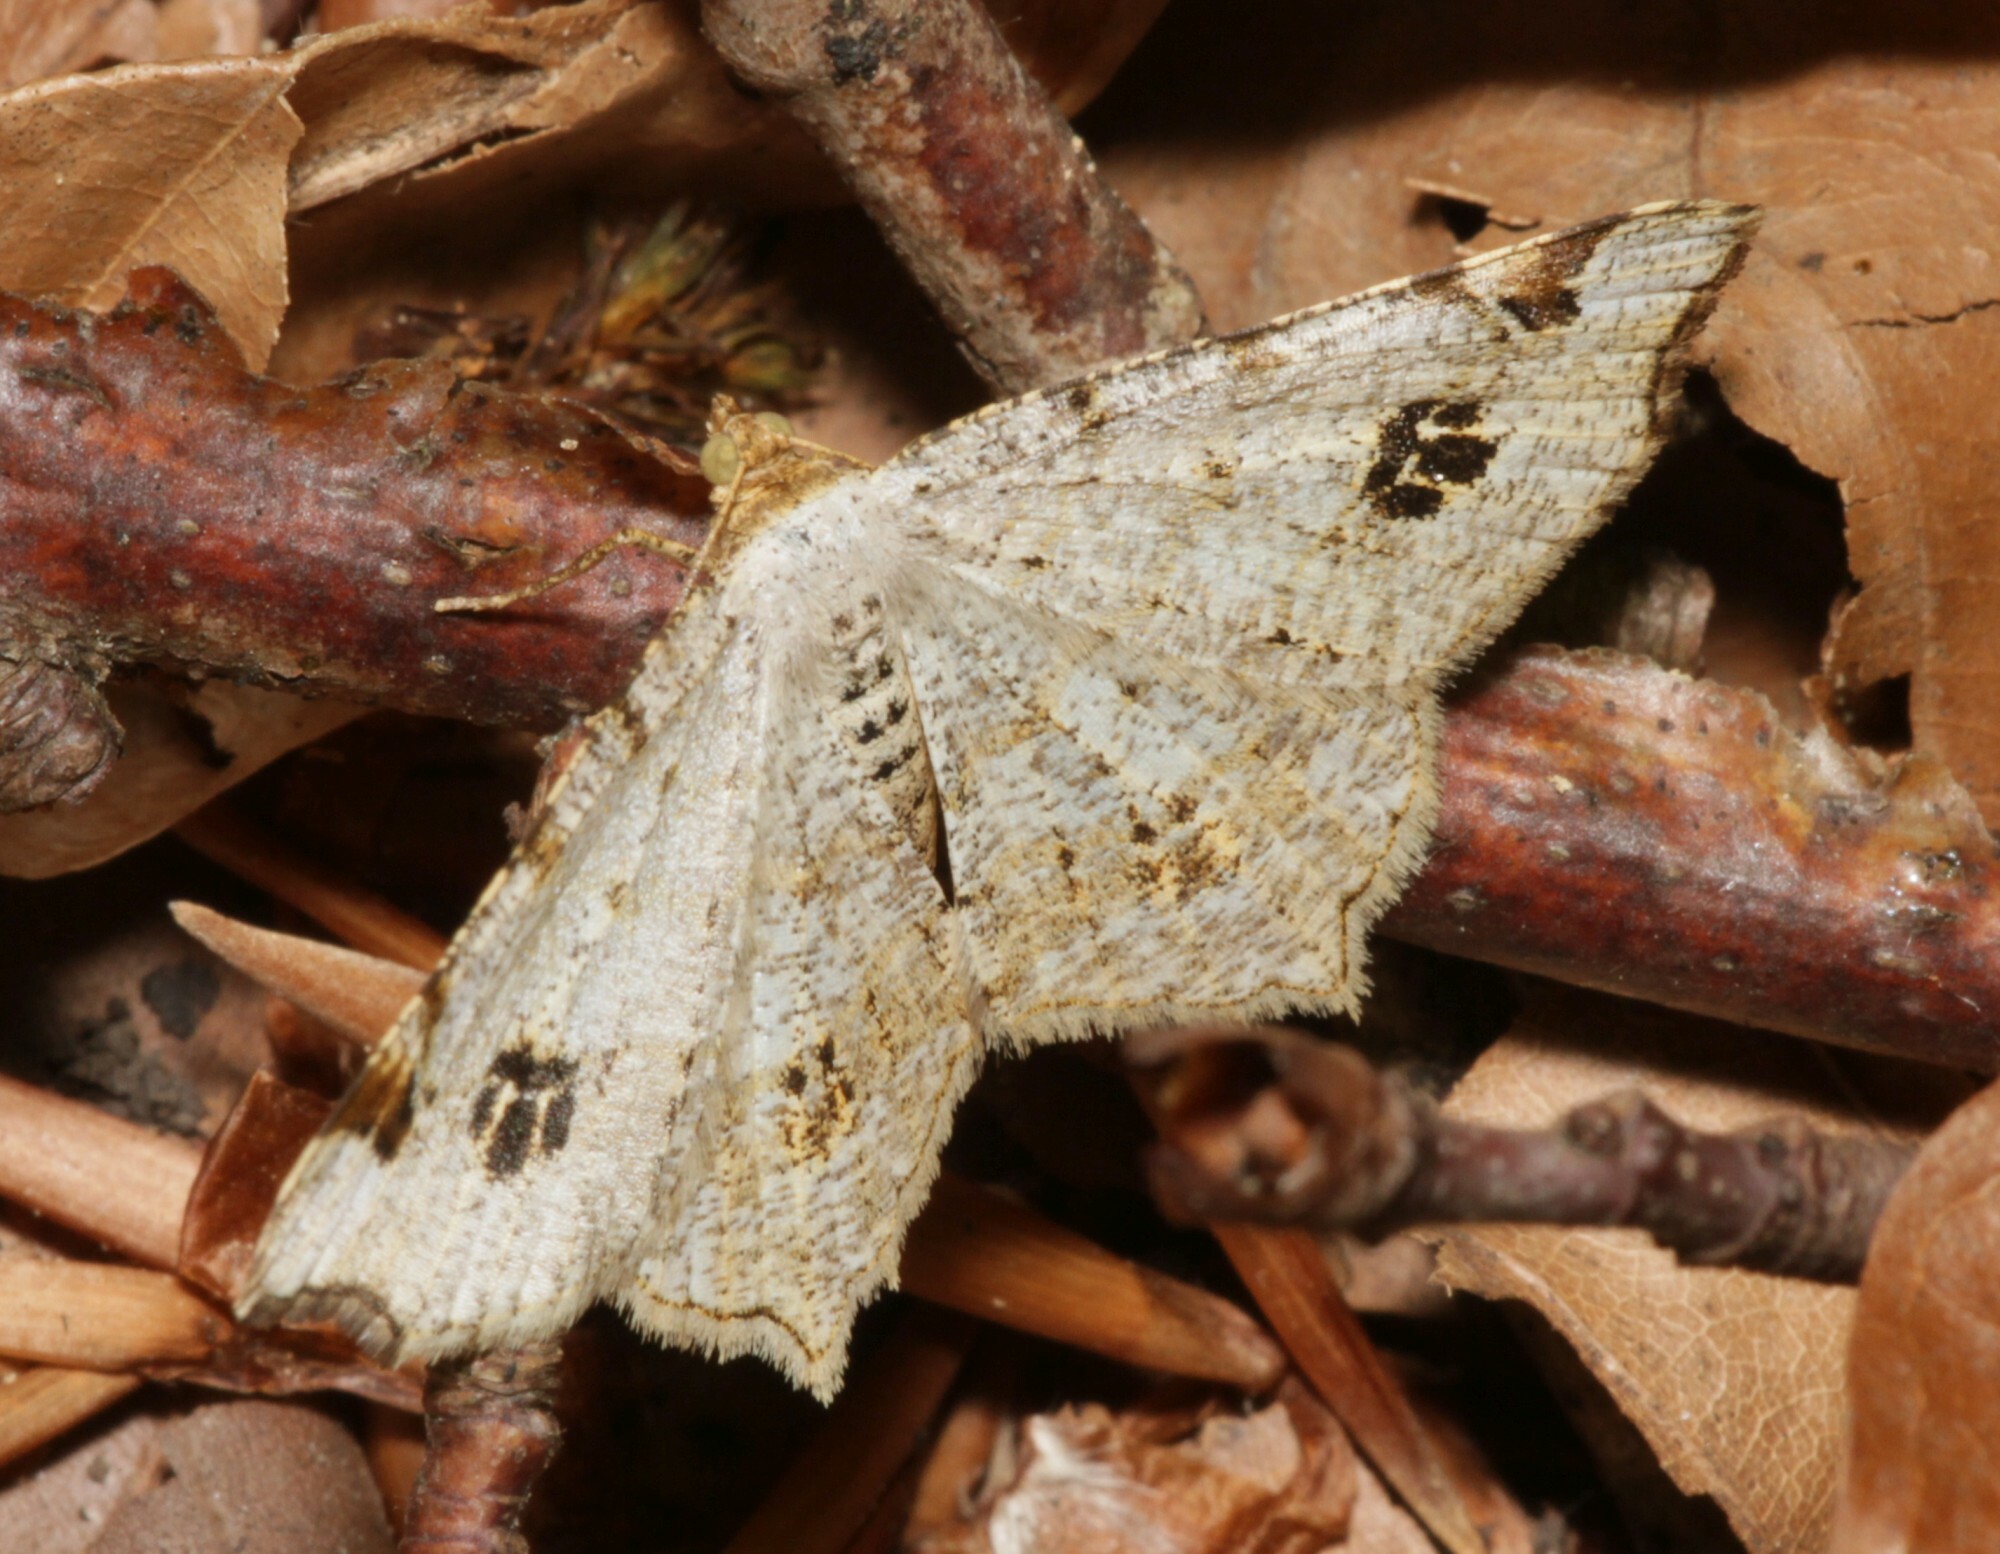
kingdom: Animalia
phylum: Arthropoda
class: Insecta
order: Lepidoptera
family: Geometridae
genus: Macaria
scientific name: Macaria notata
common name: Peacock moth
